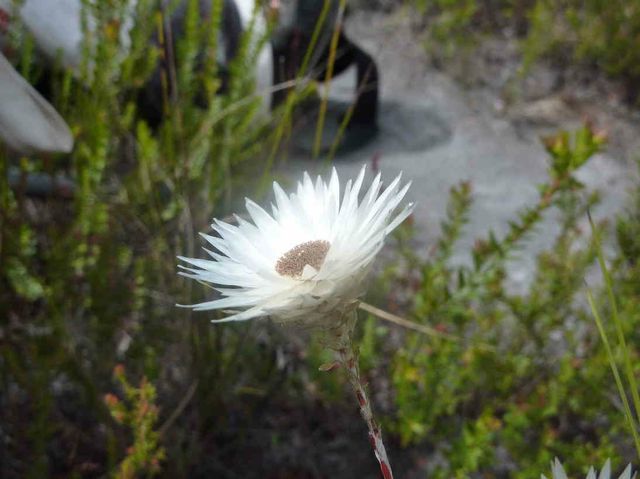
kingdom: Plantae
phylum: Tracheophyta
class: Magnoliopsida
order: Asterales
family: Asteraceae
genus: Edmondia
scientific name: Edmondia sesamoides
